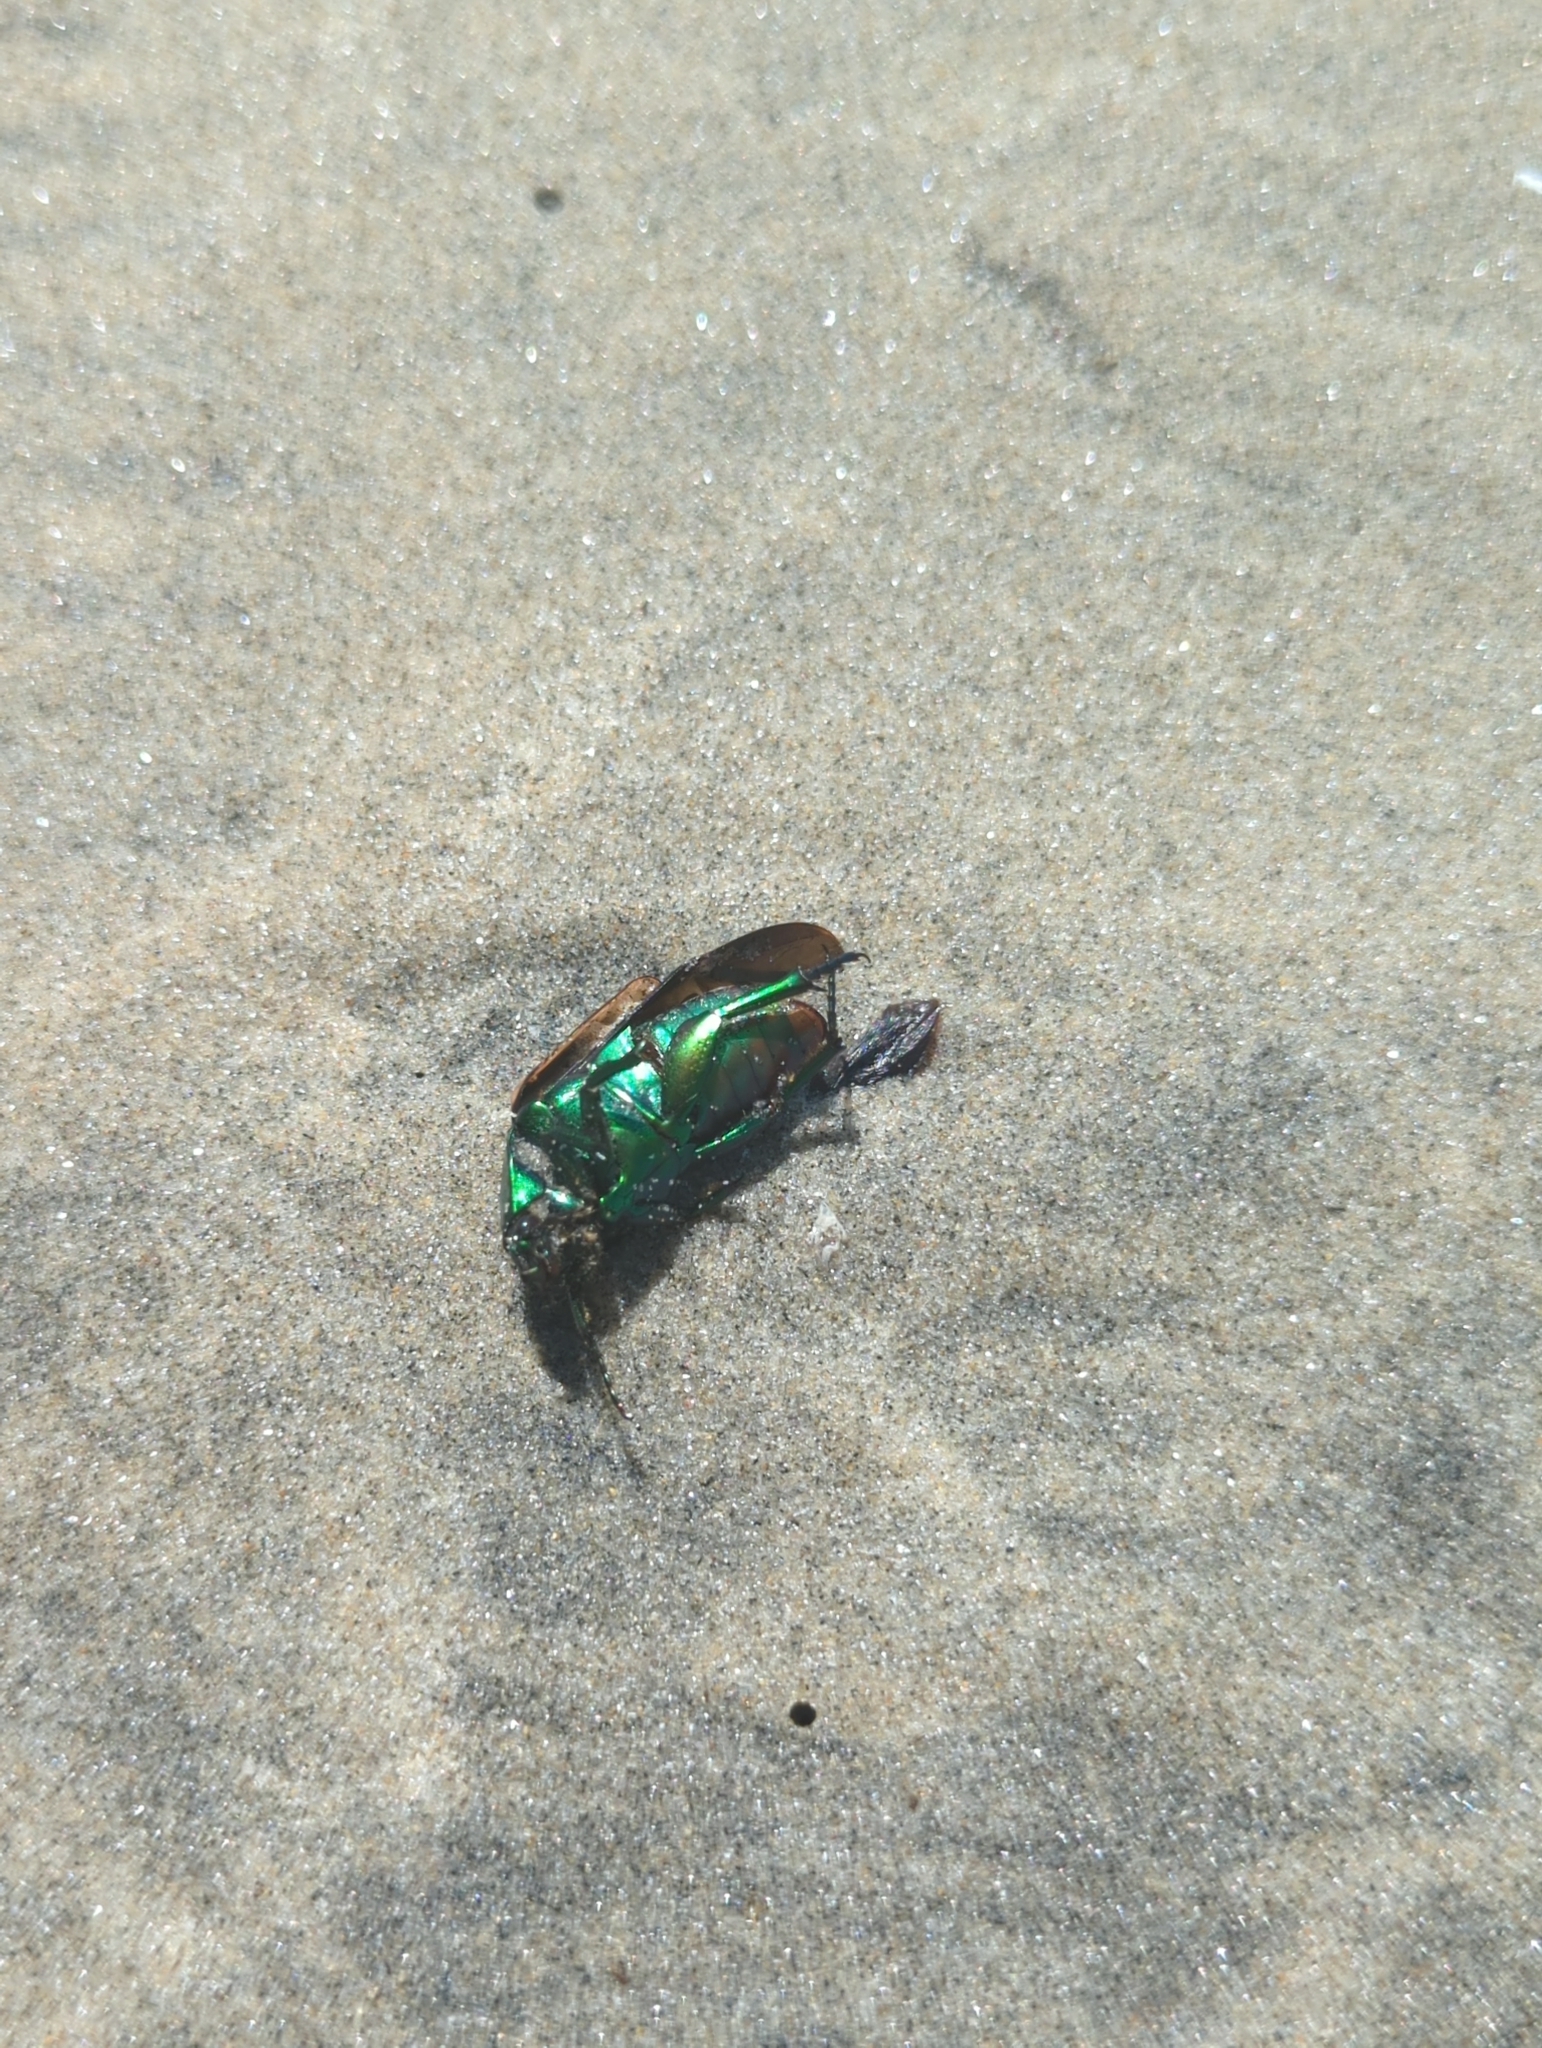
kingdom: Animalia
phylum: Arthropoda
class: Insecta
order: Coleoptera
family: Scarabaeidae
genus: Cotinis
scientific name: Cotinis mutabilis
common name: Figeater beetle
